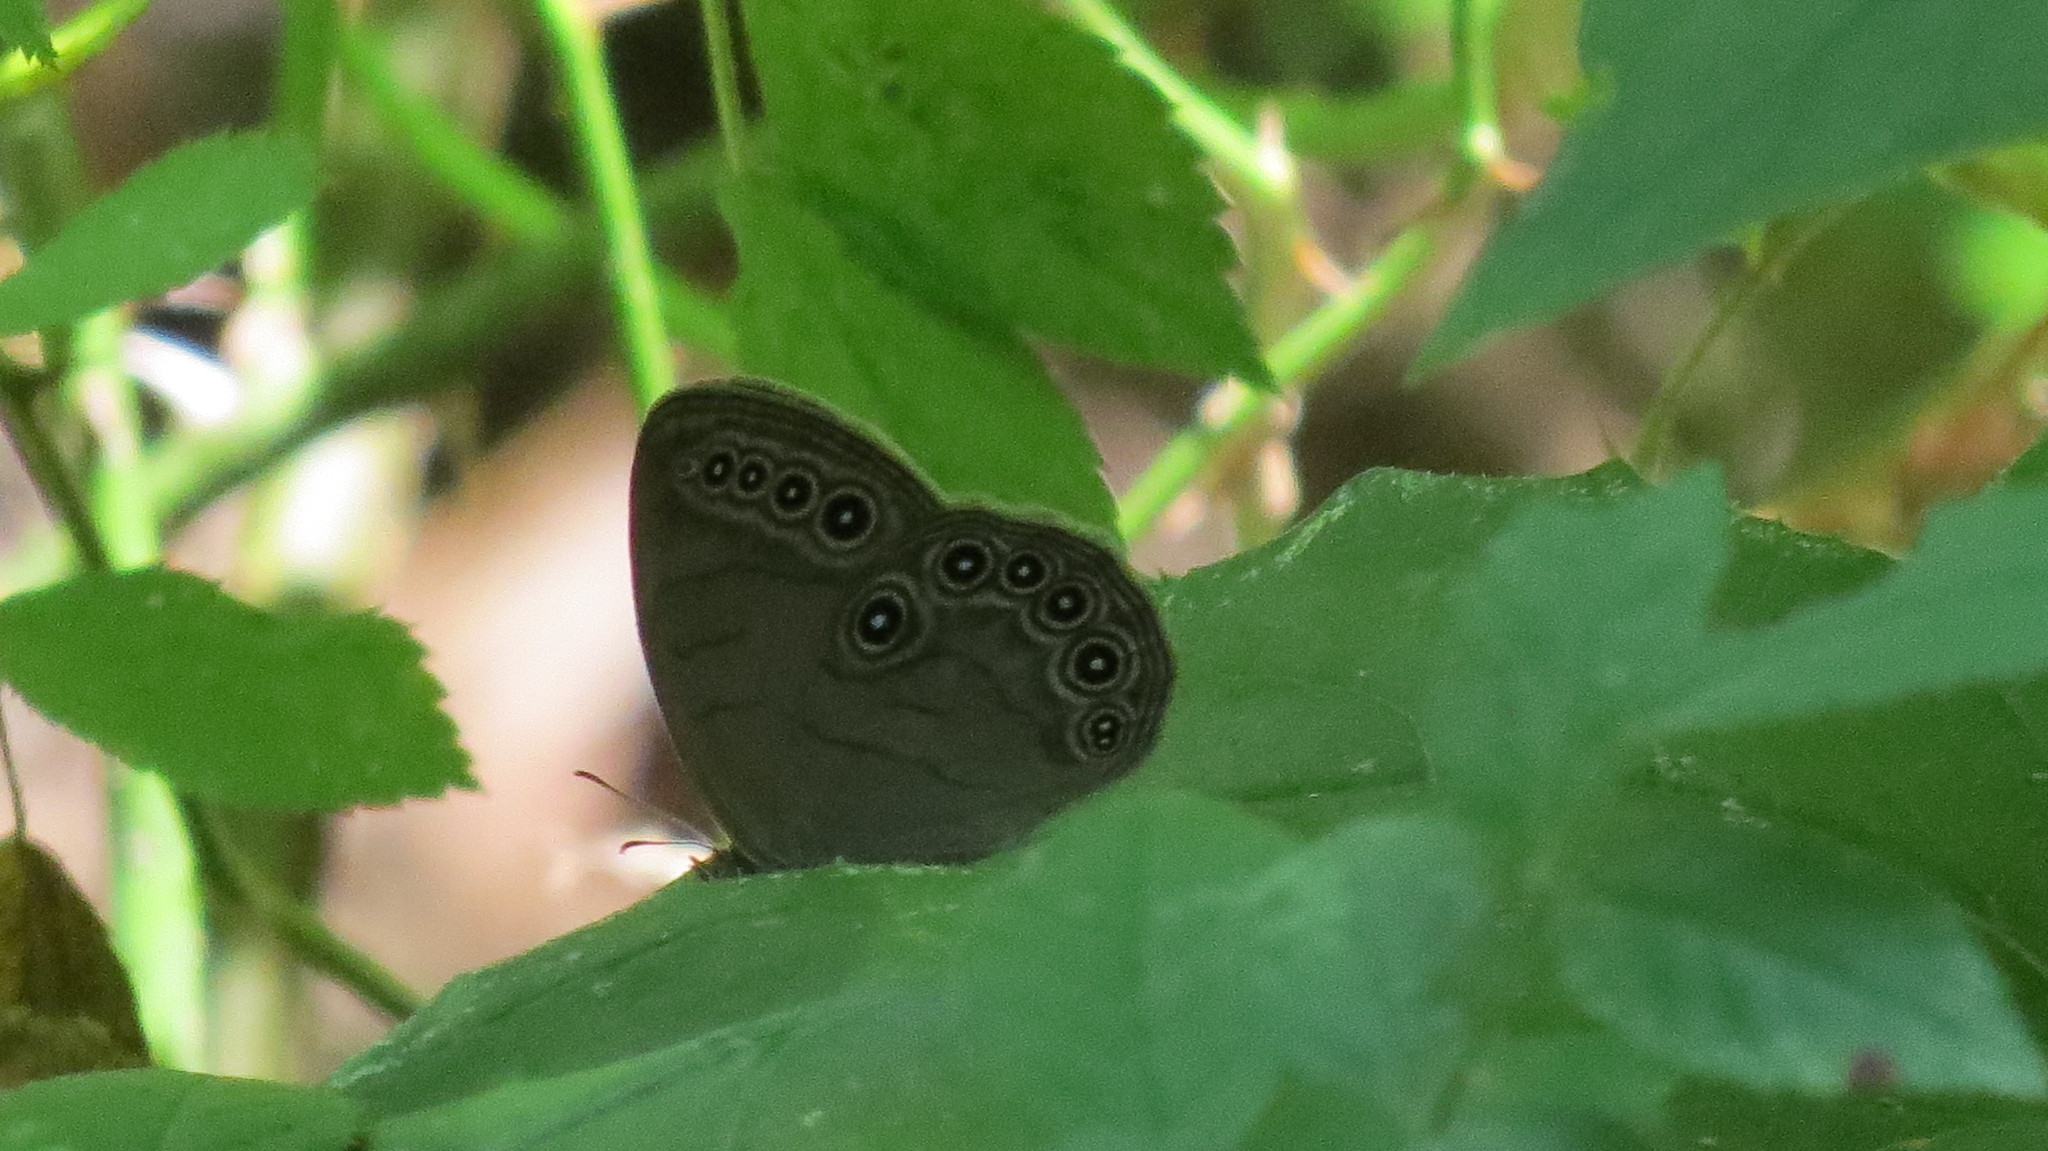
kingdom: Animalia
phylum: Arthropoda
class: Insecta
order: Lepidoptera
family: Nymphalidae
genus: Lethe
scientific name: Lethe eurydice
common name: Eyed brown
